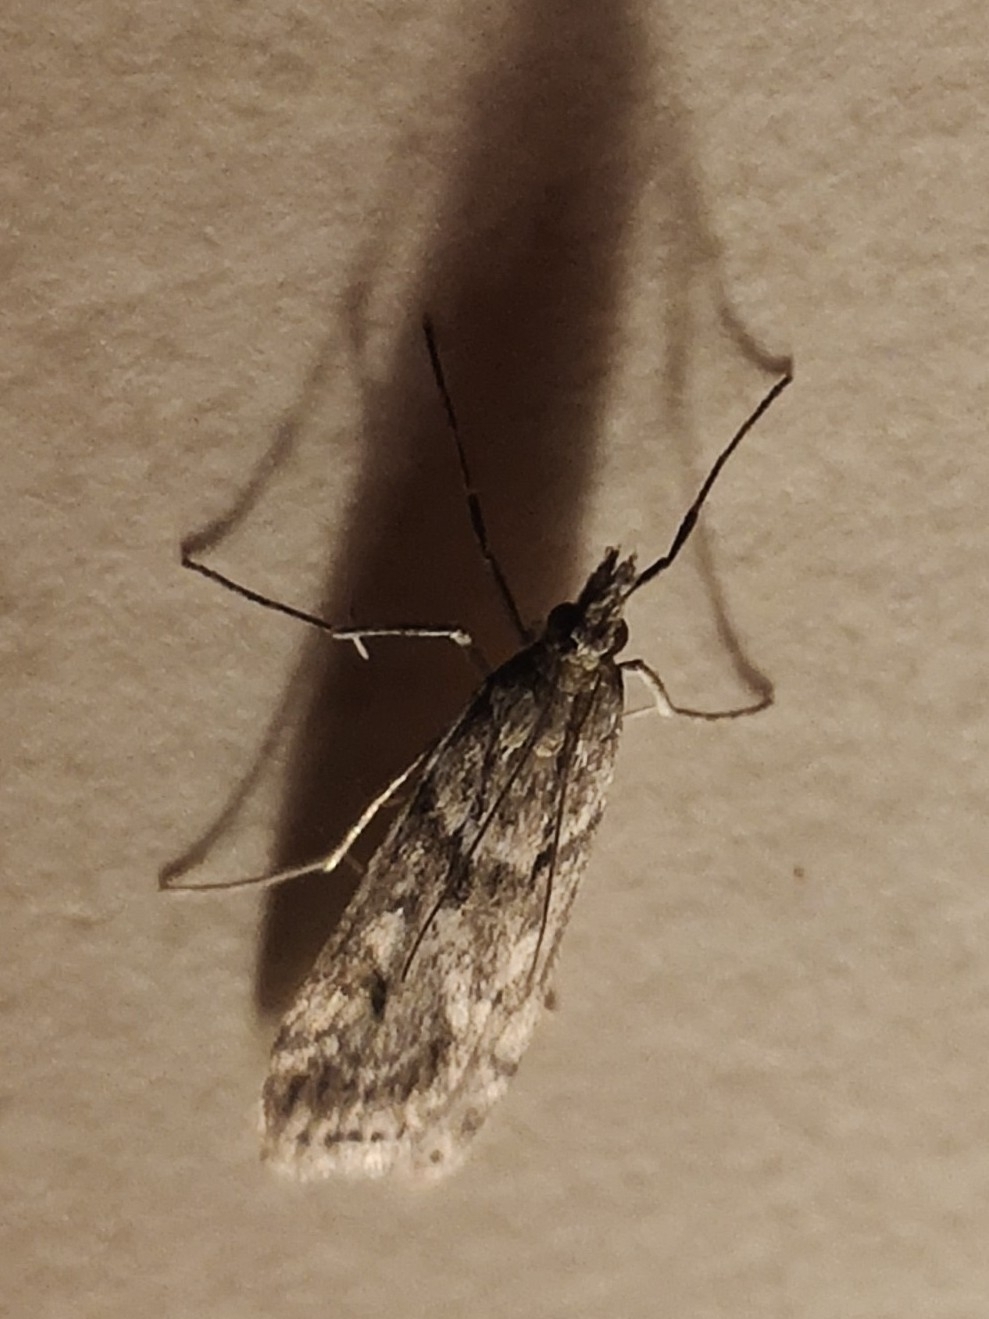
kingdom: Animalia
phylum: Arthropoda
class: Insecta
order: Lepidoptera
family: Crambidae
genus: Eudonia
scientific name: Eudonia angustea
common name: Narrow-winged grey
